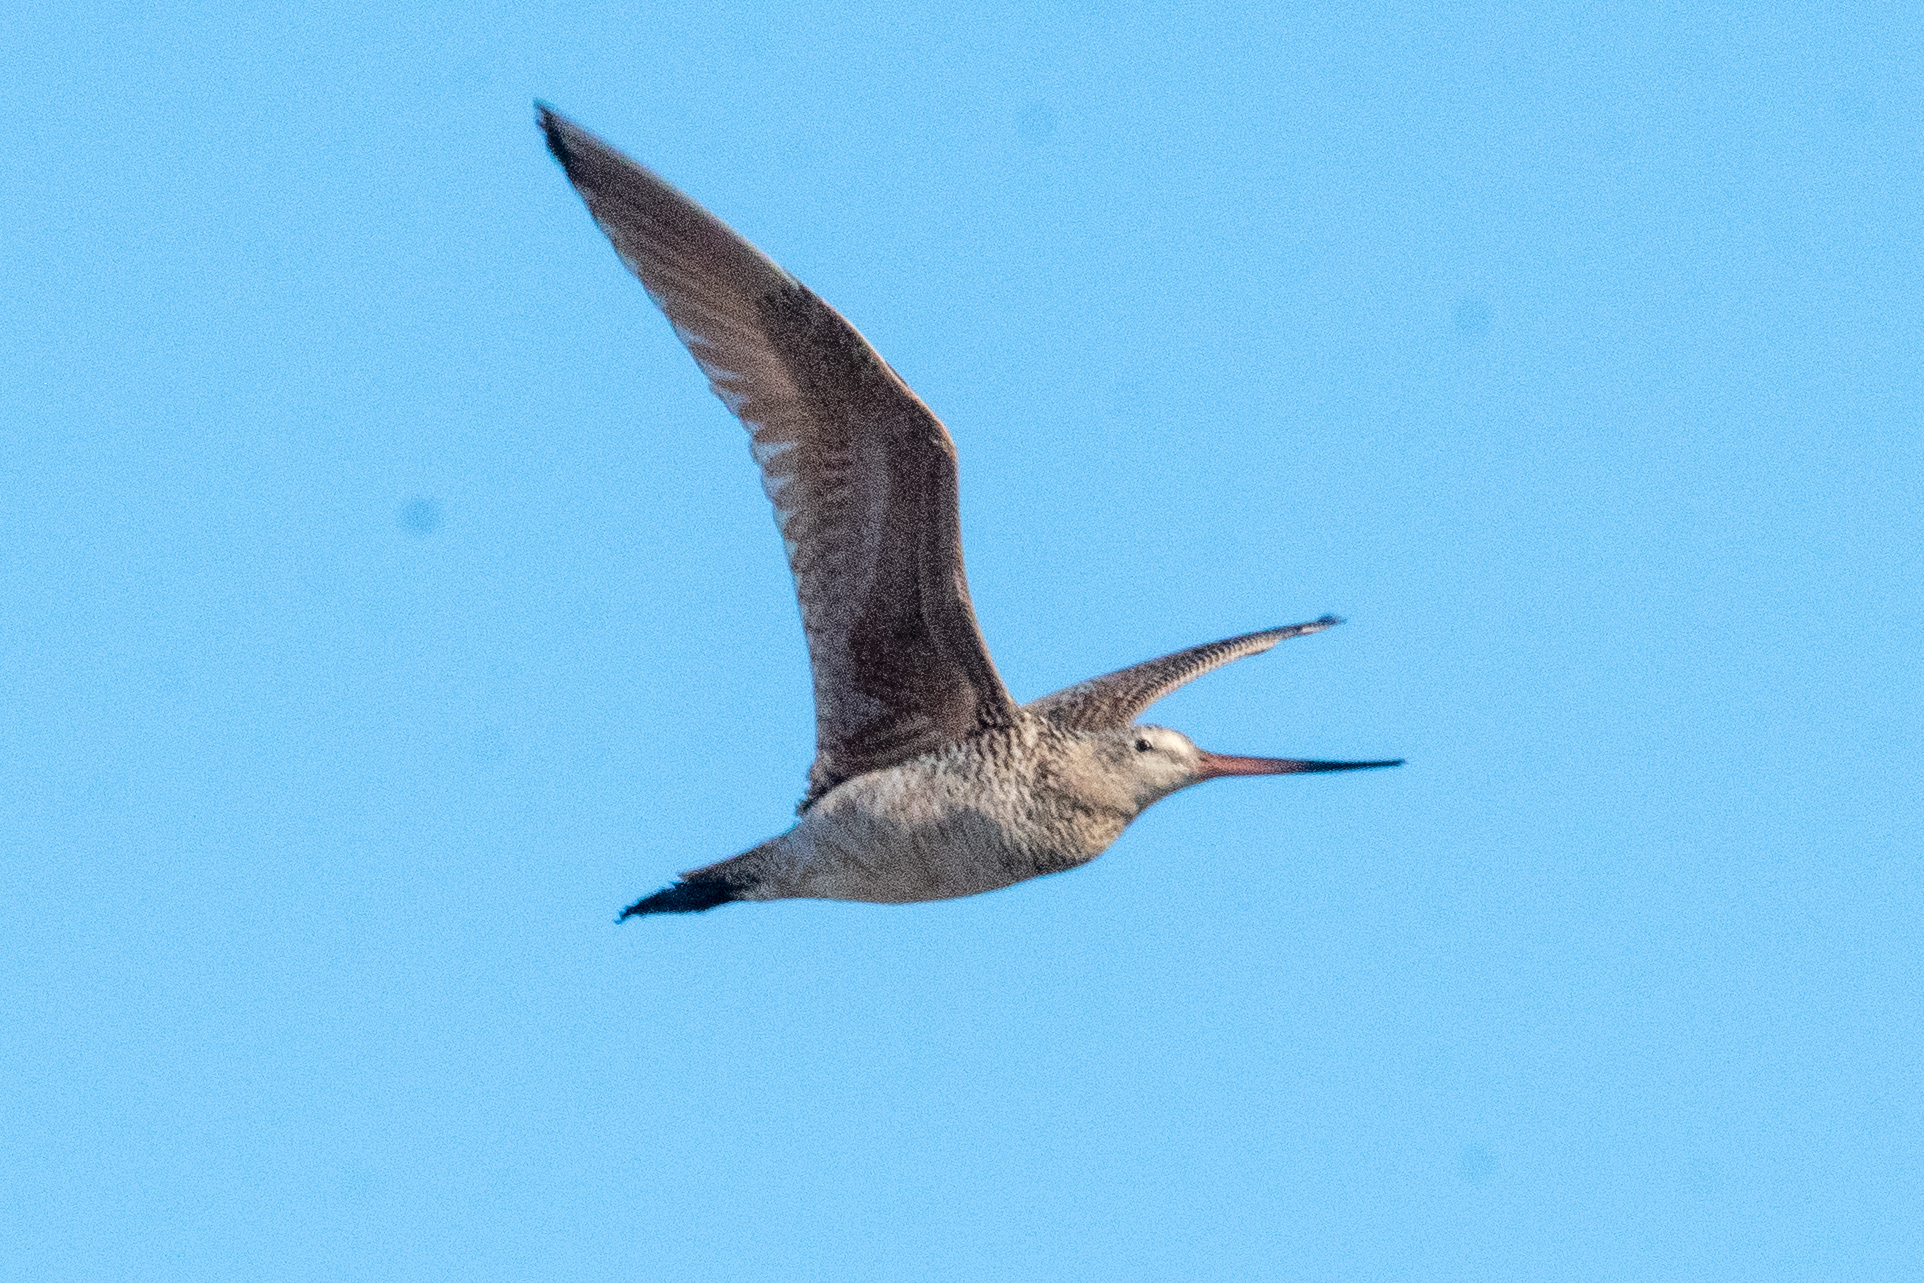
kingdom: Animalia
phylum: Chordata
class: Aves
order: Charadriiformes
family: Scolopacidae
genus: Limosa
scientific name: Limosa fedoa
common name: Marbled godwit
